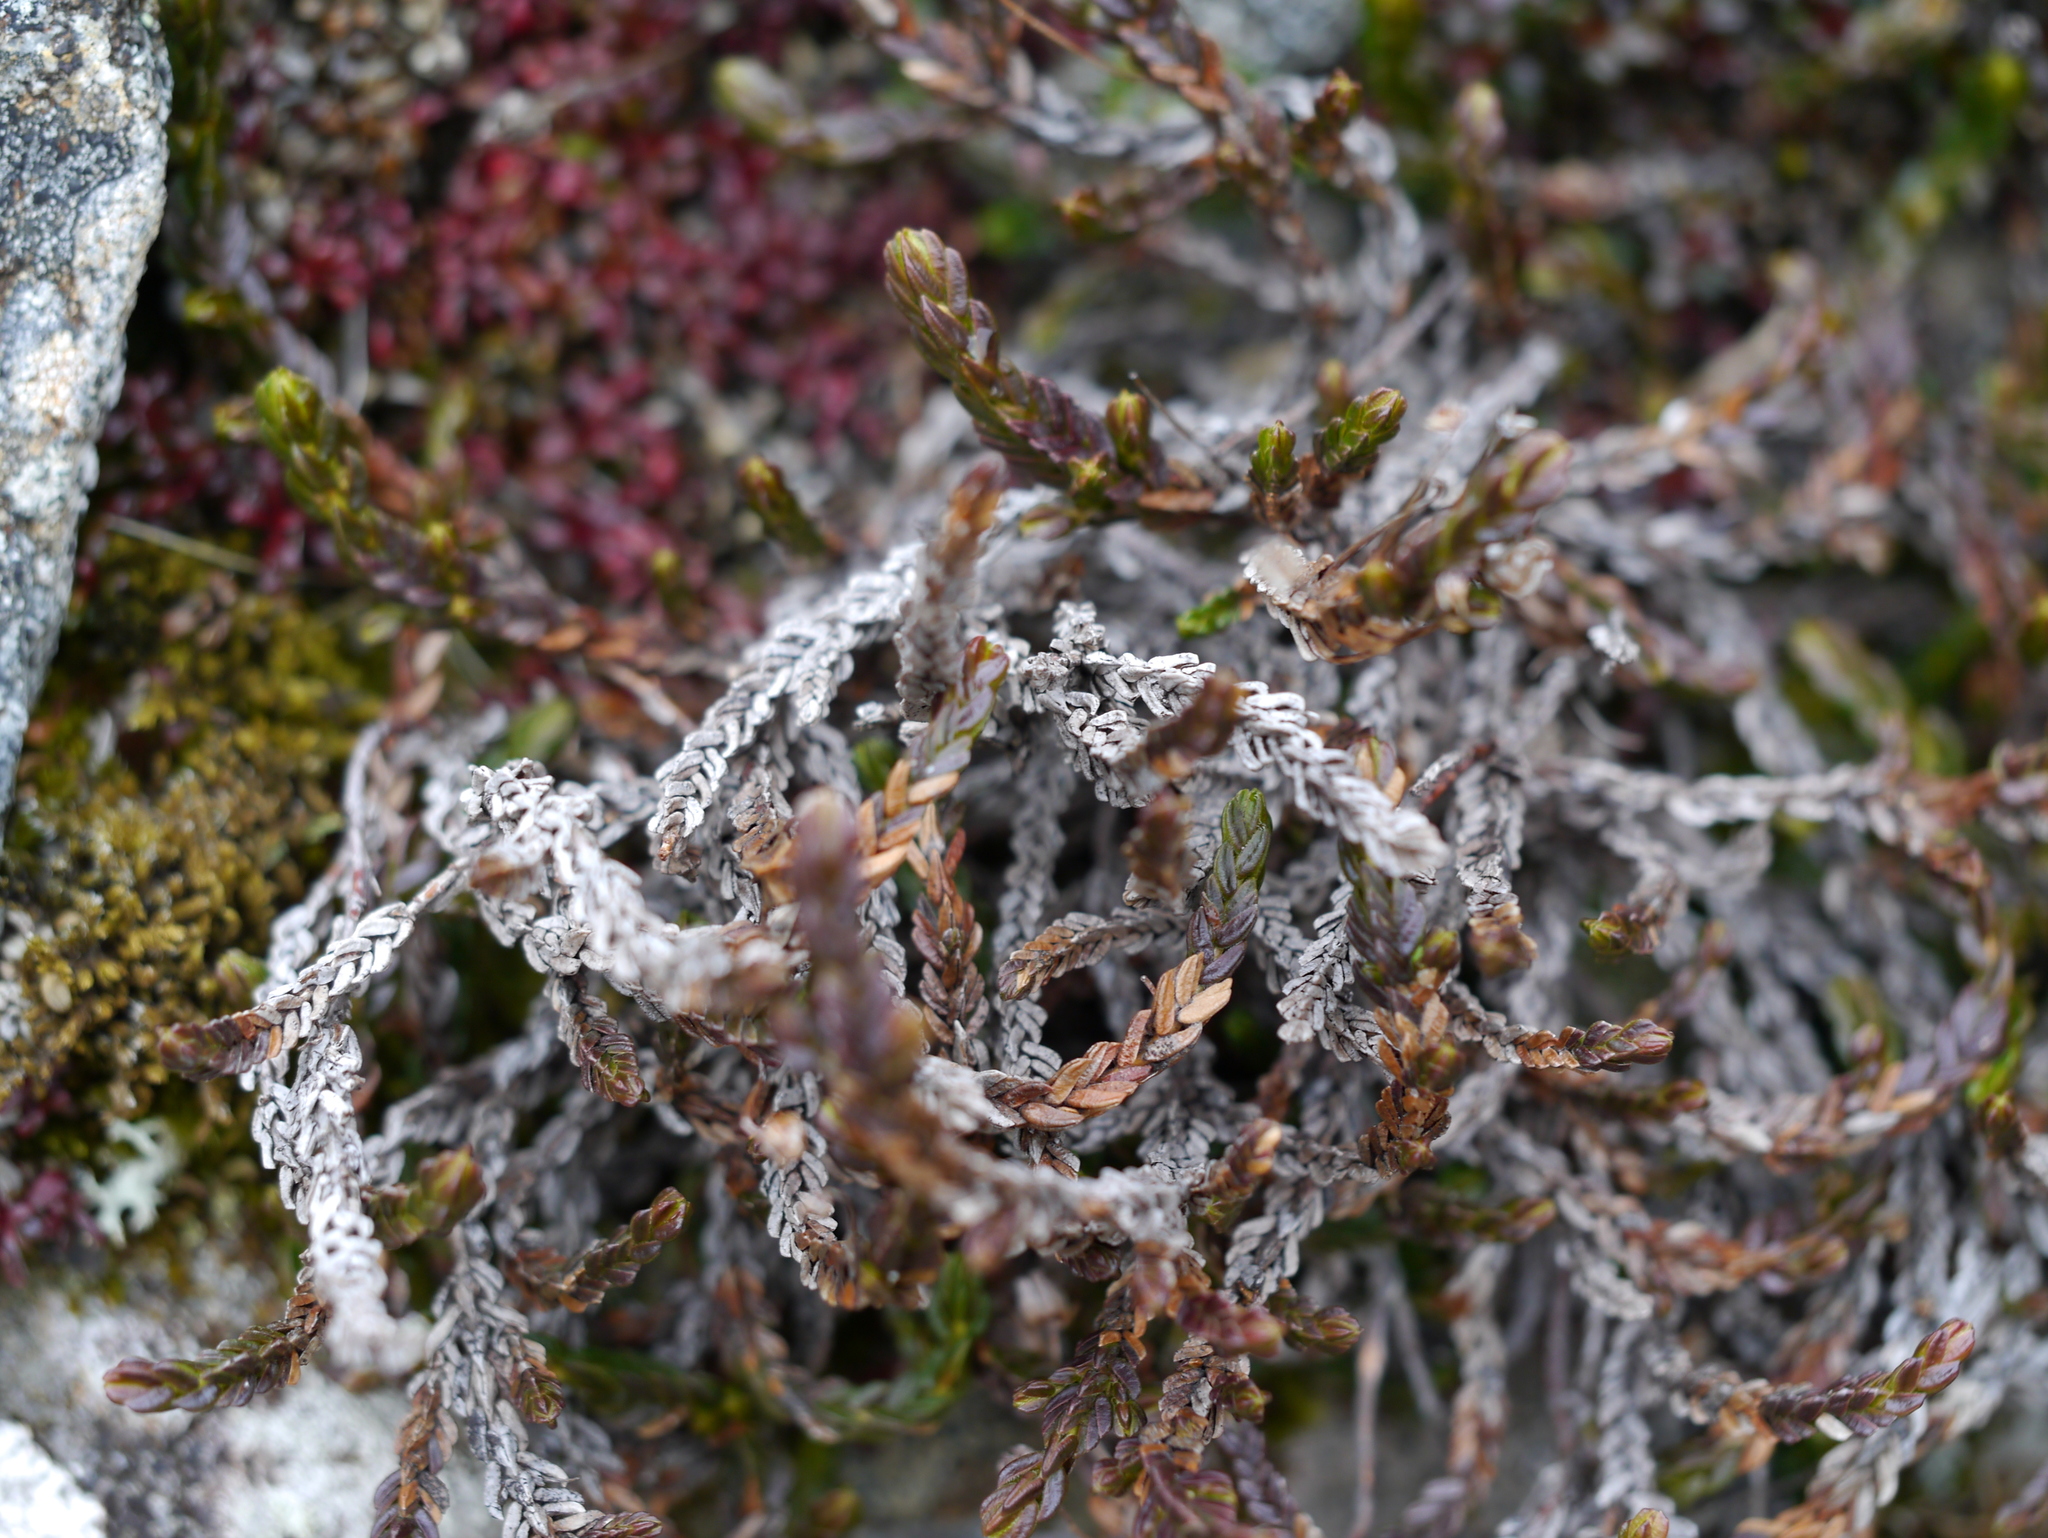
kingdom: Plantae
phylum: Tracheophyta
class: Magnoliopsida
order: Ericales
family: Ericaceae
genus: Cassiope
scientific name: Cassiope tetragona
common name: Arctic bell heather
